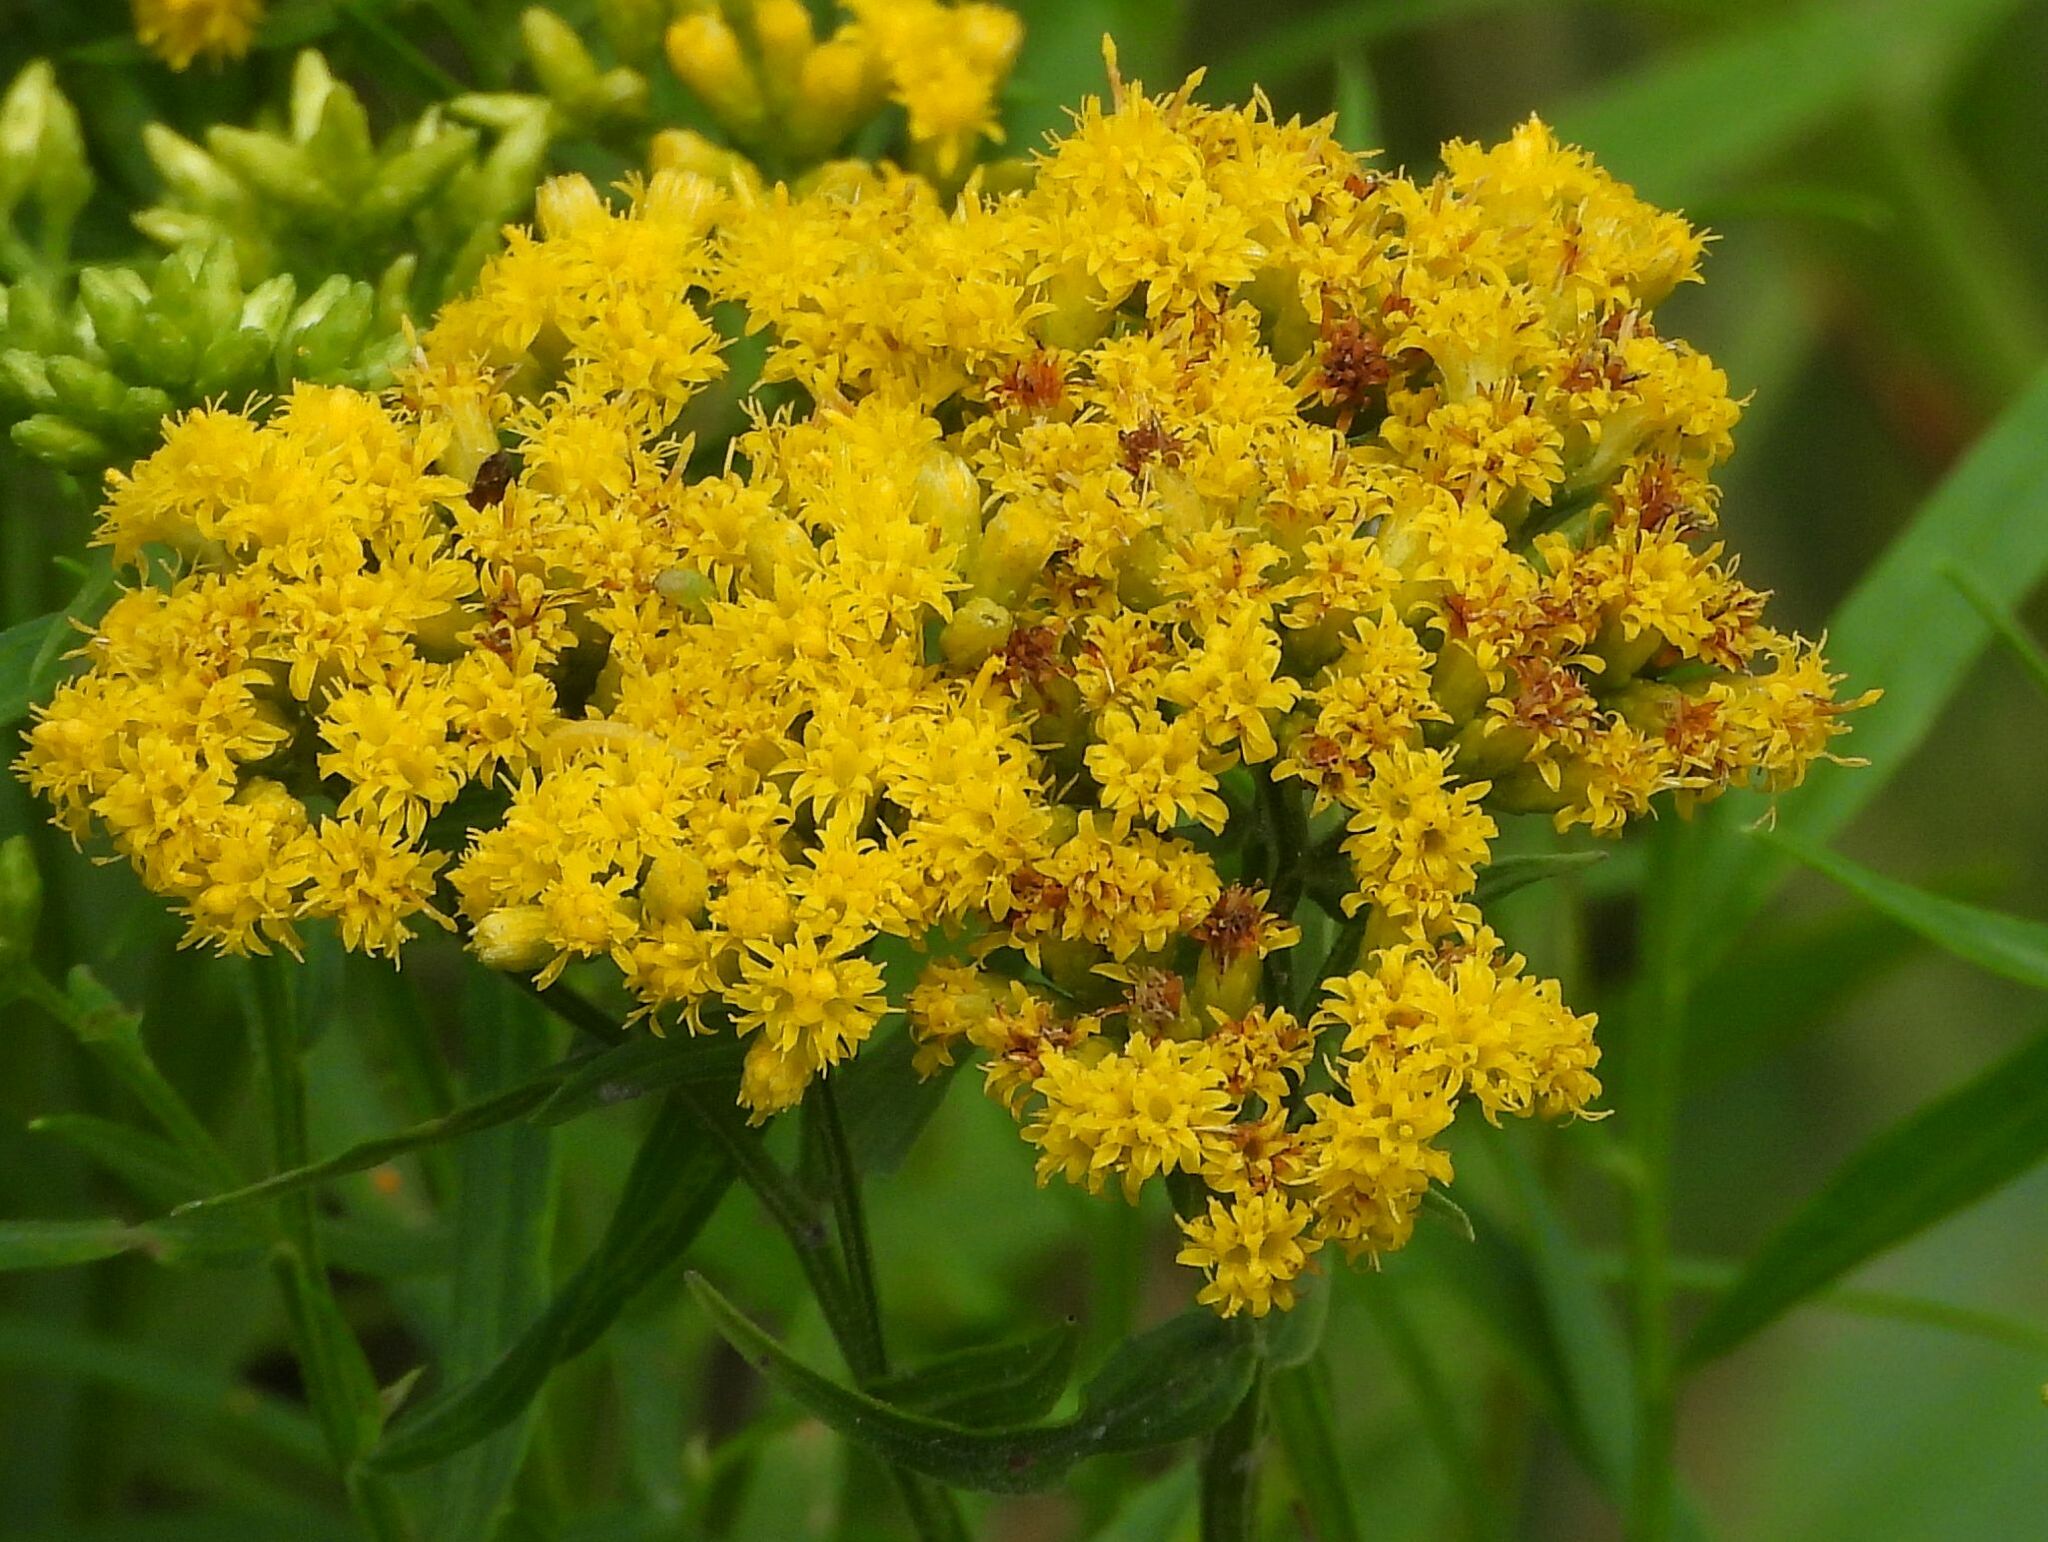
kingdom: Plantae
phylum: Tracheophyta
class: Magnoliopsida
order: Asterales
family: Asteraceae
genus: Euthamia
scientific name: Euthamia graminifolia
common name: Common goldentop
